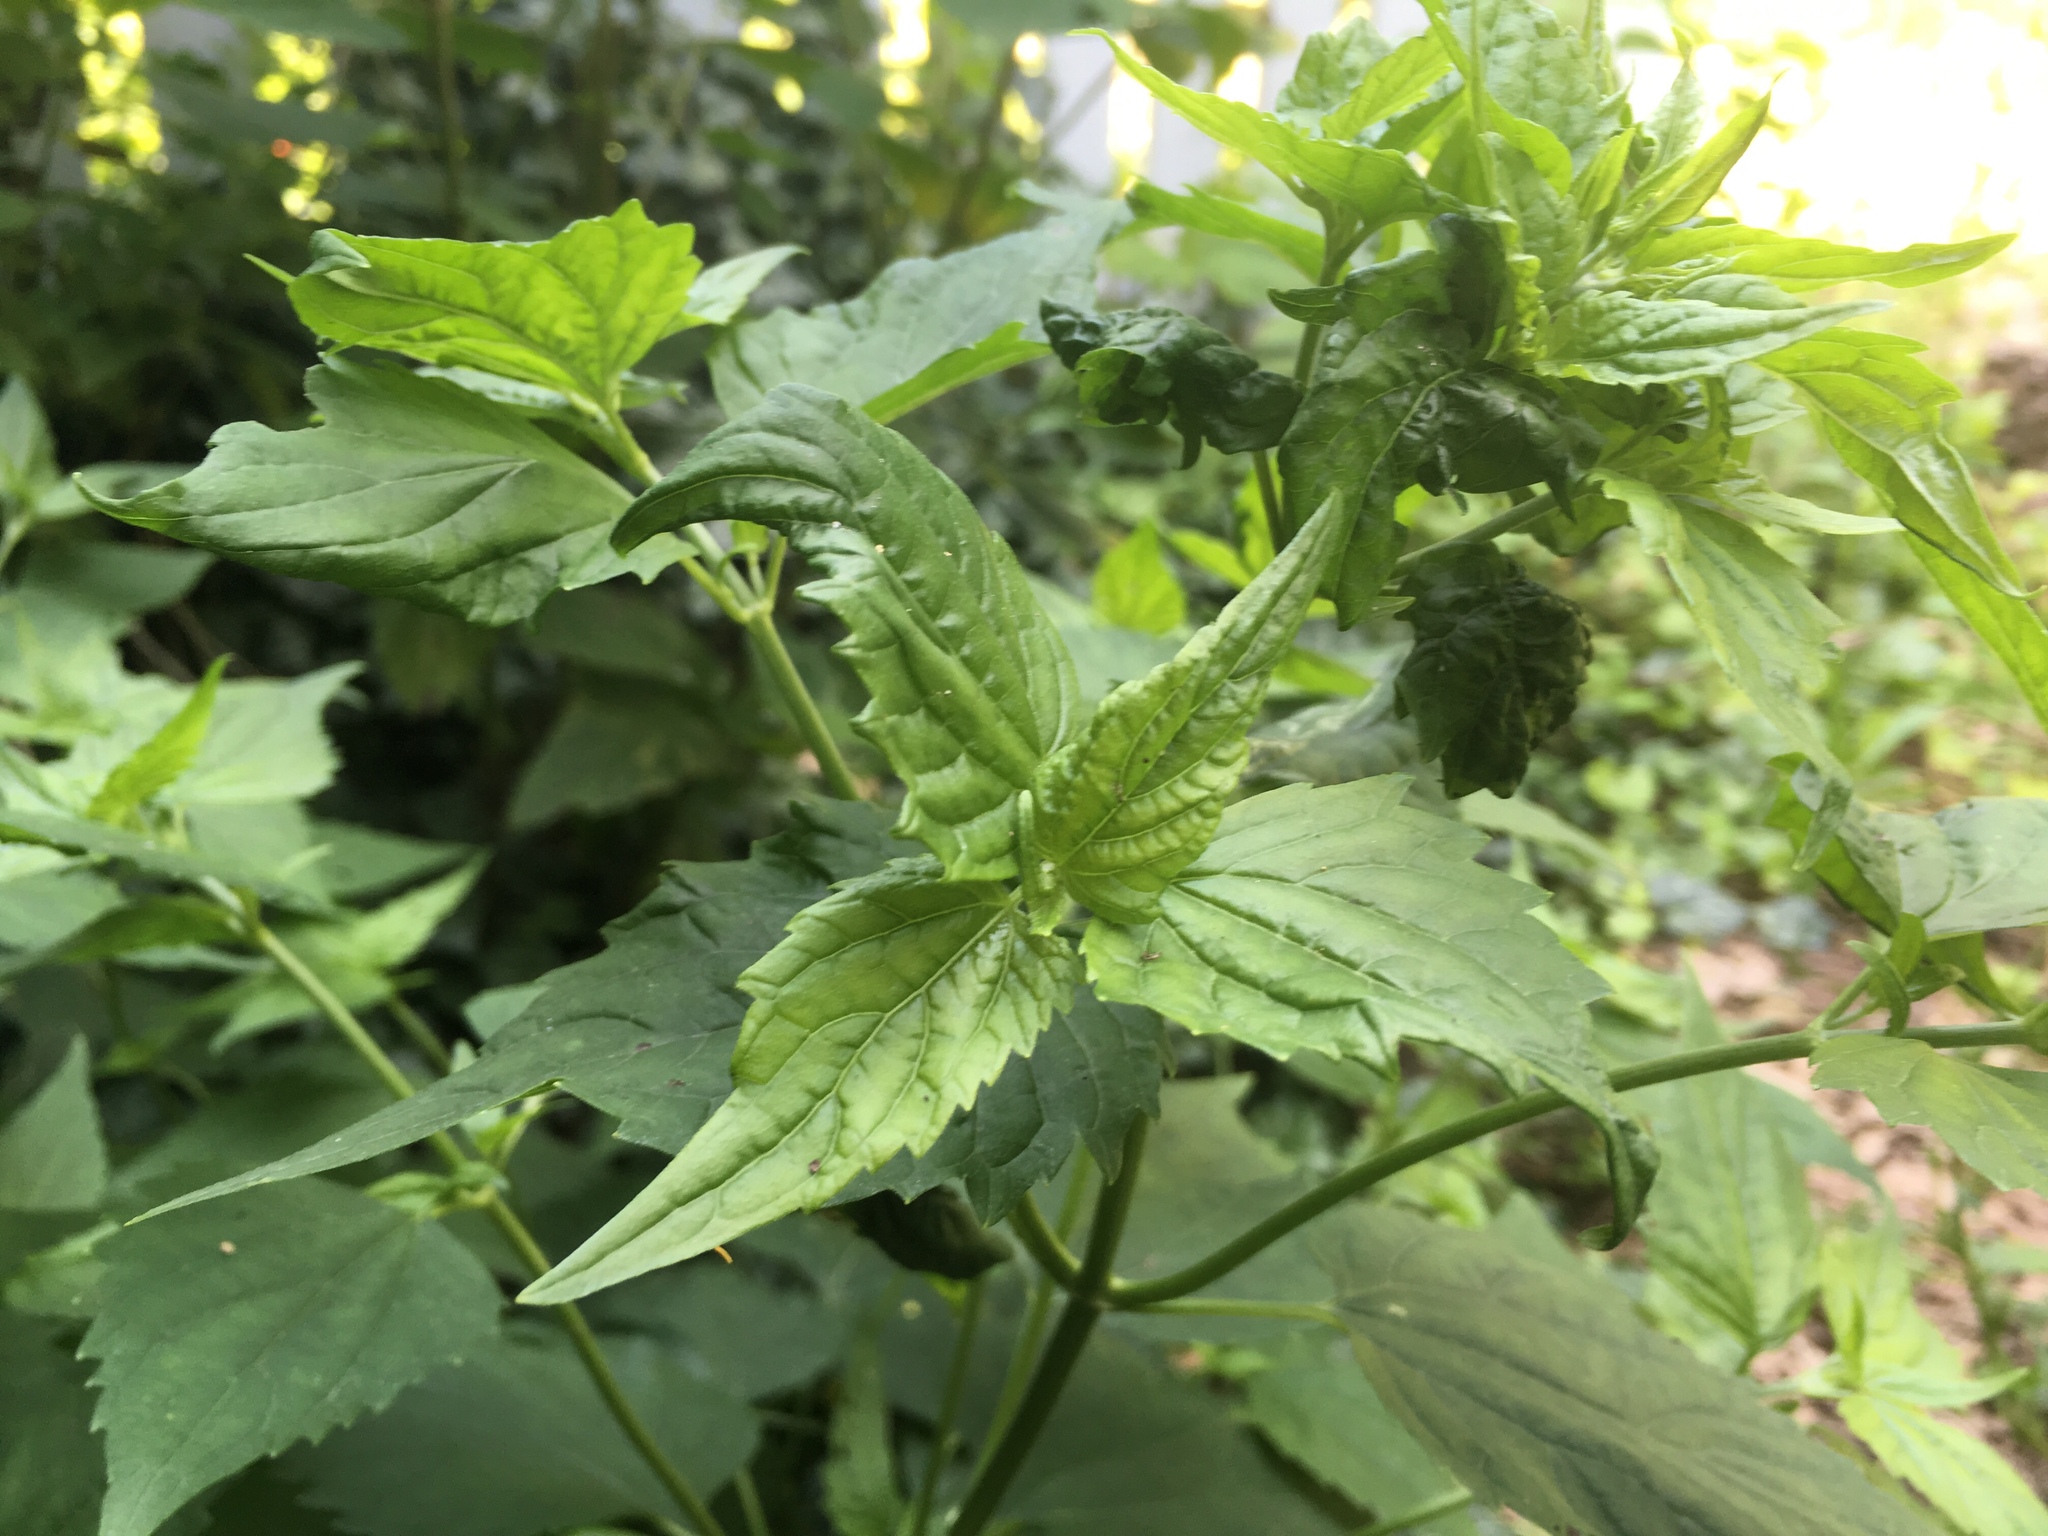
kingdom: Plantae
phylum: Tracheophyta
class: Magnoliopsida
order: Asterales
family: Asteraceae
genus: Ageratina
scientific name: Ageratina altissima
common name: White snakeroot
